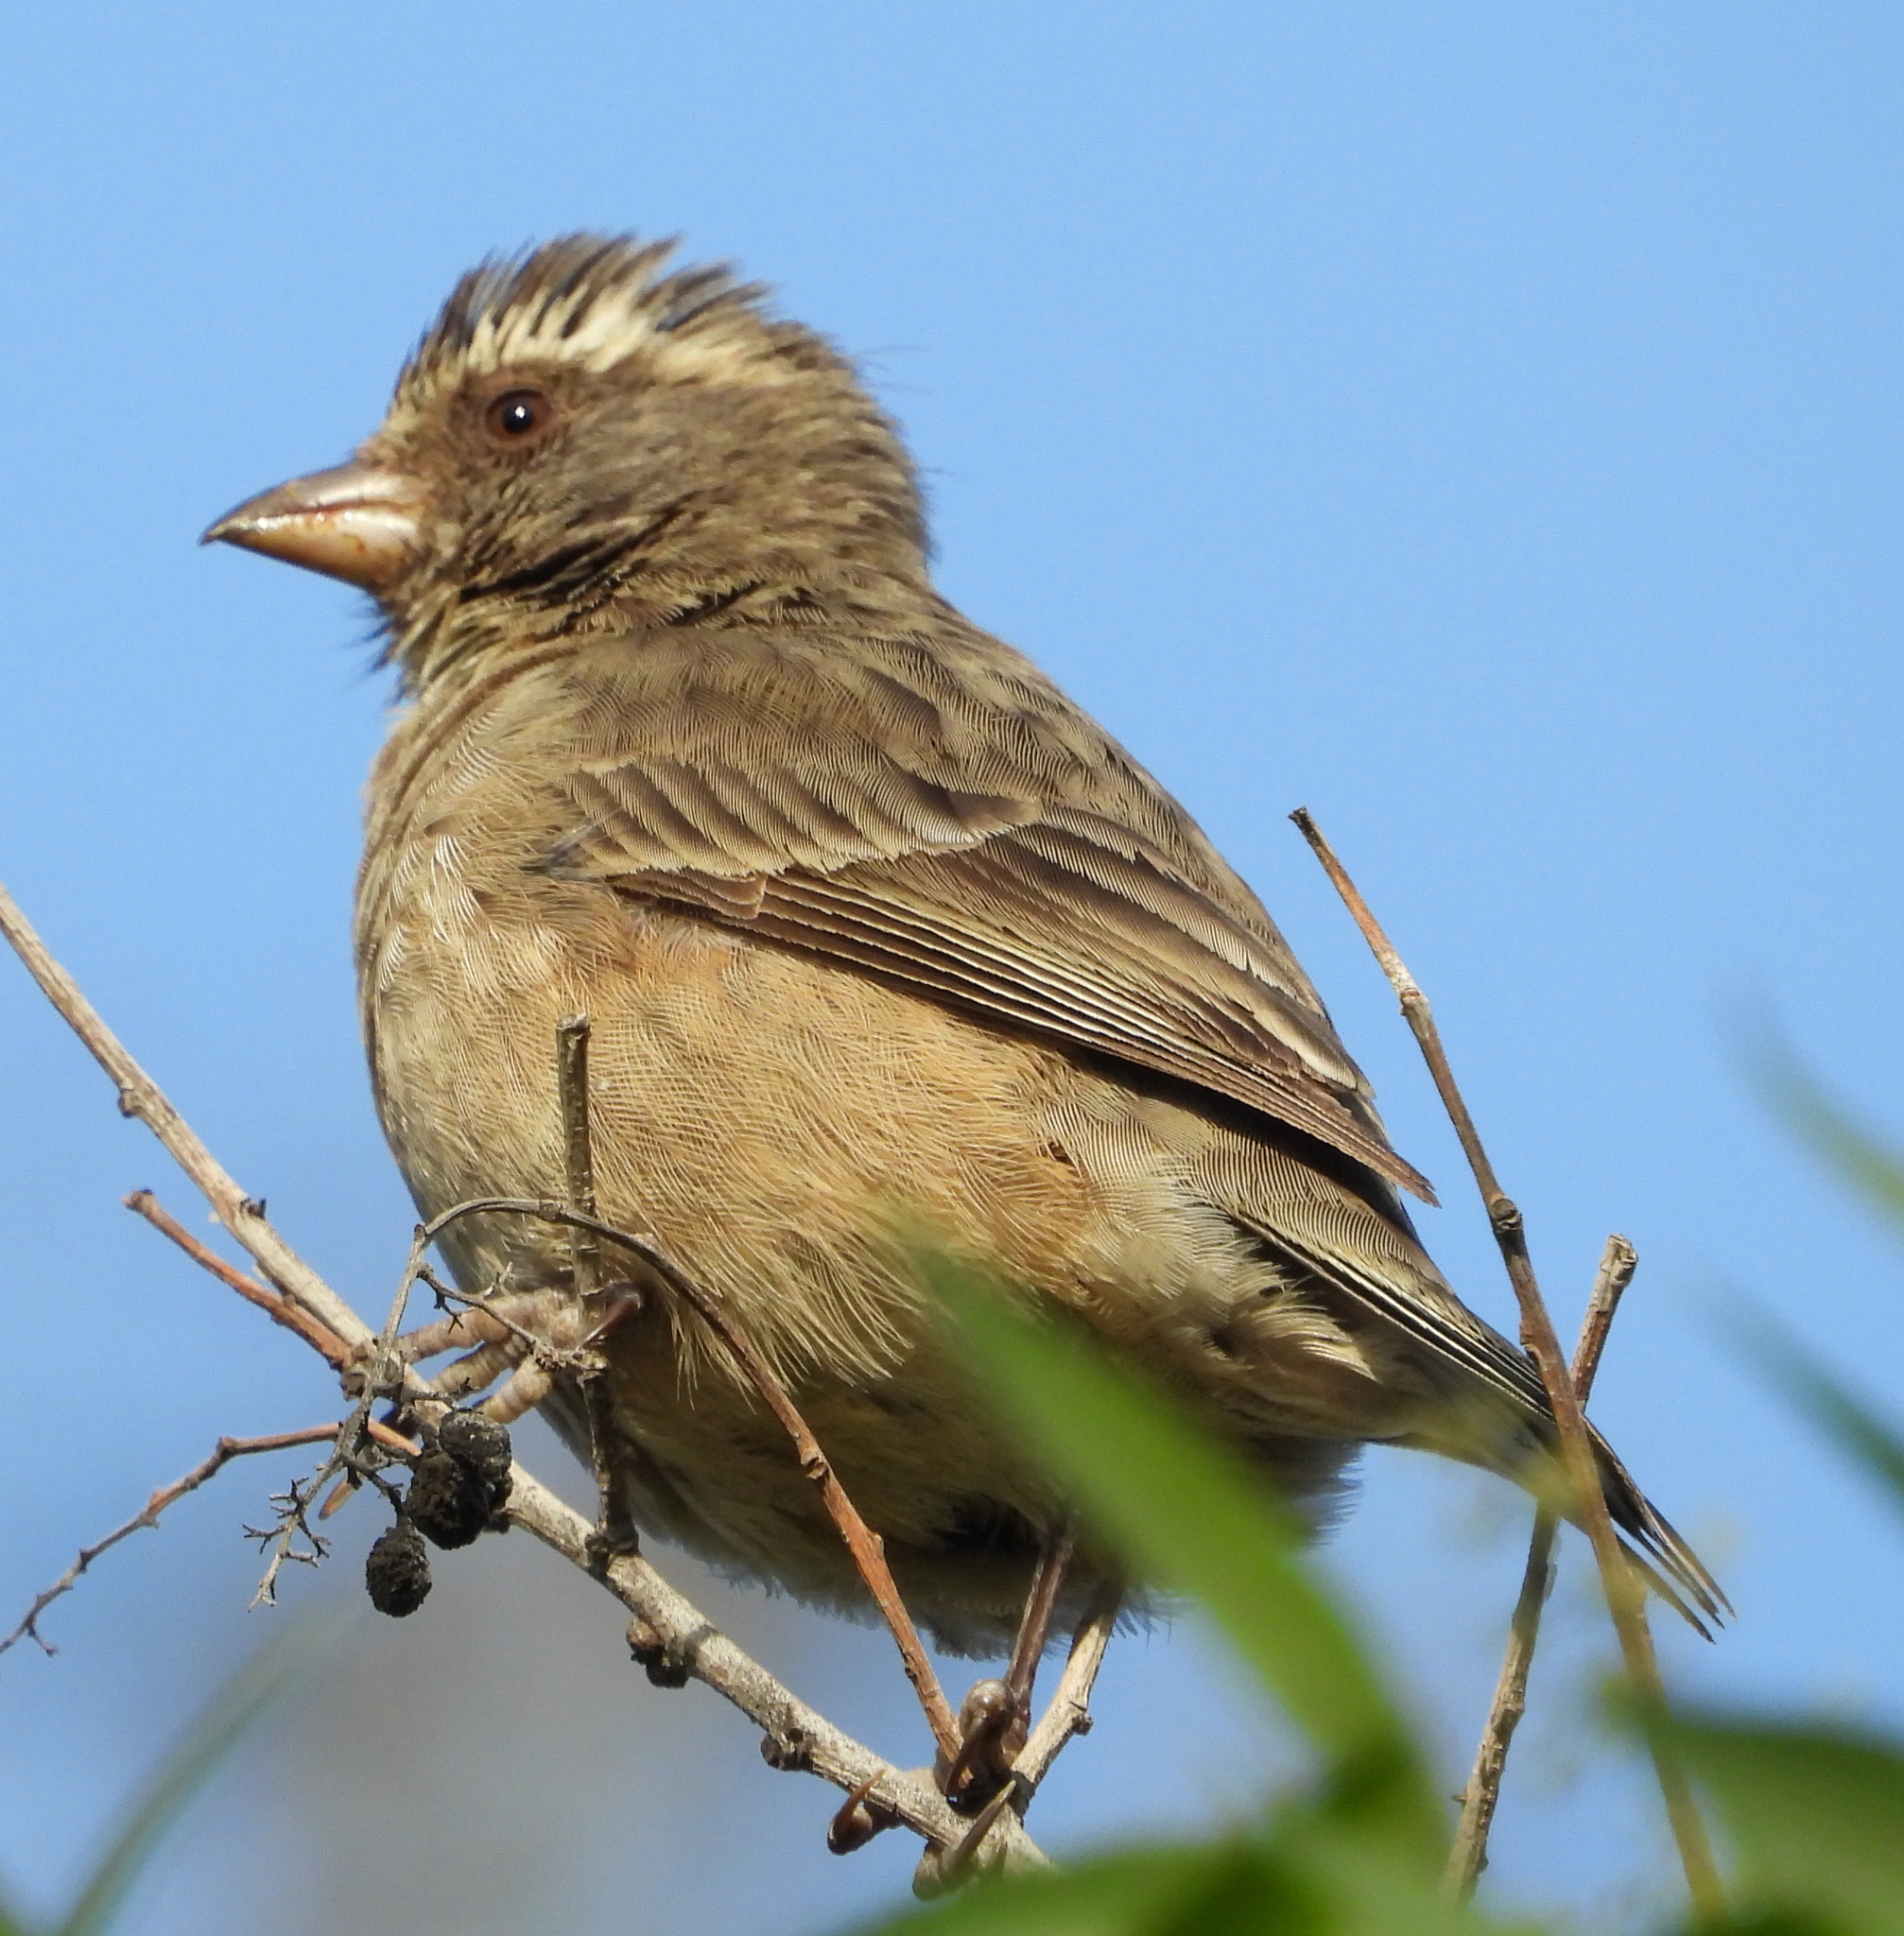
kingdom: Animalia
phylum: Chordata
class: Aves
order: Passeriformes
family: Fringillidae
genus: Crithagra
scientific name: Crithagra gularis
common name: Streaky-headed seedeater
